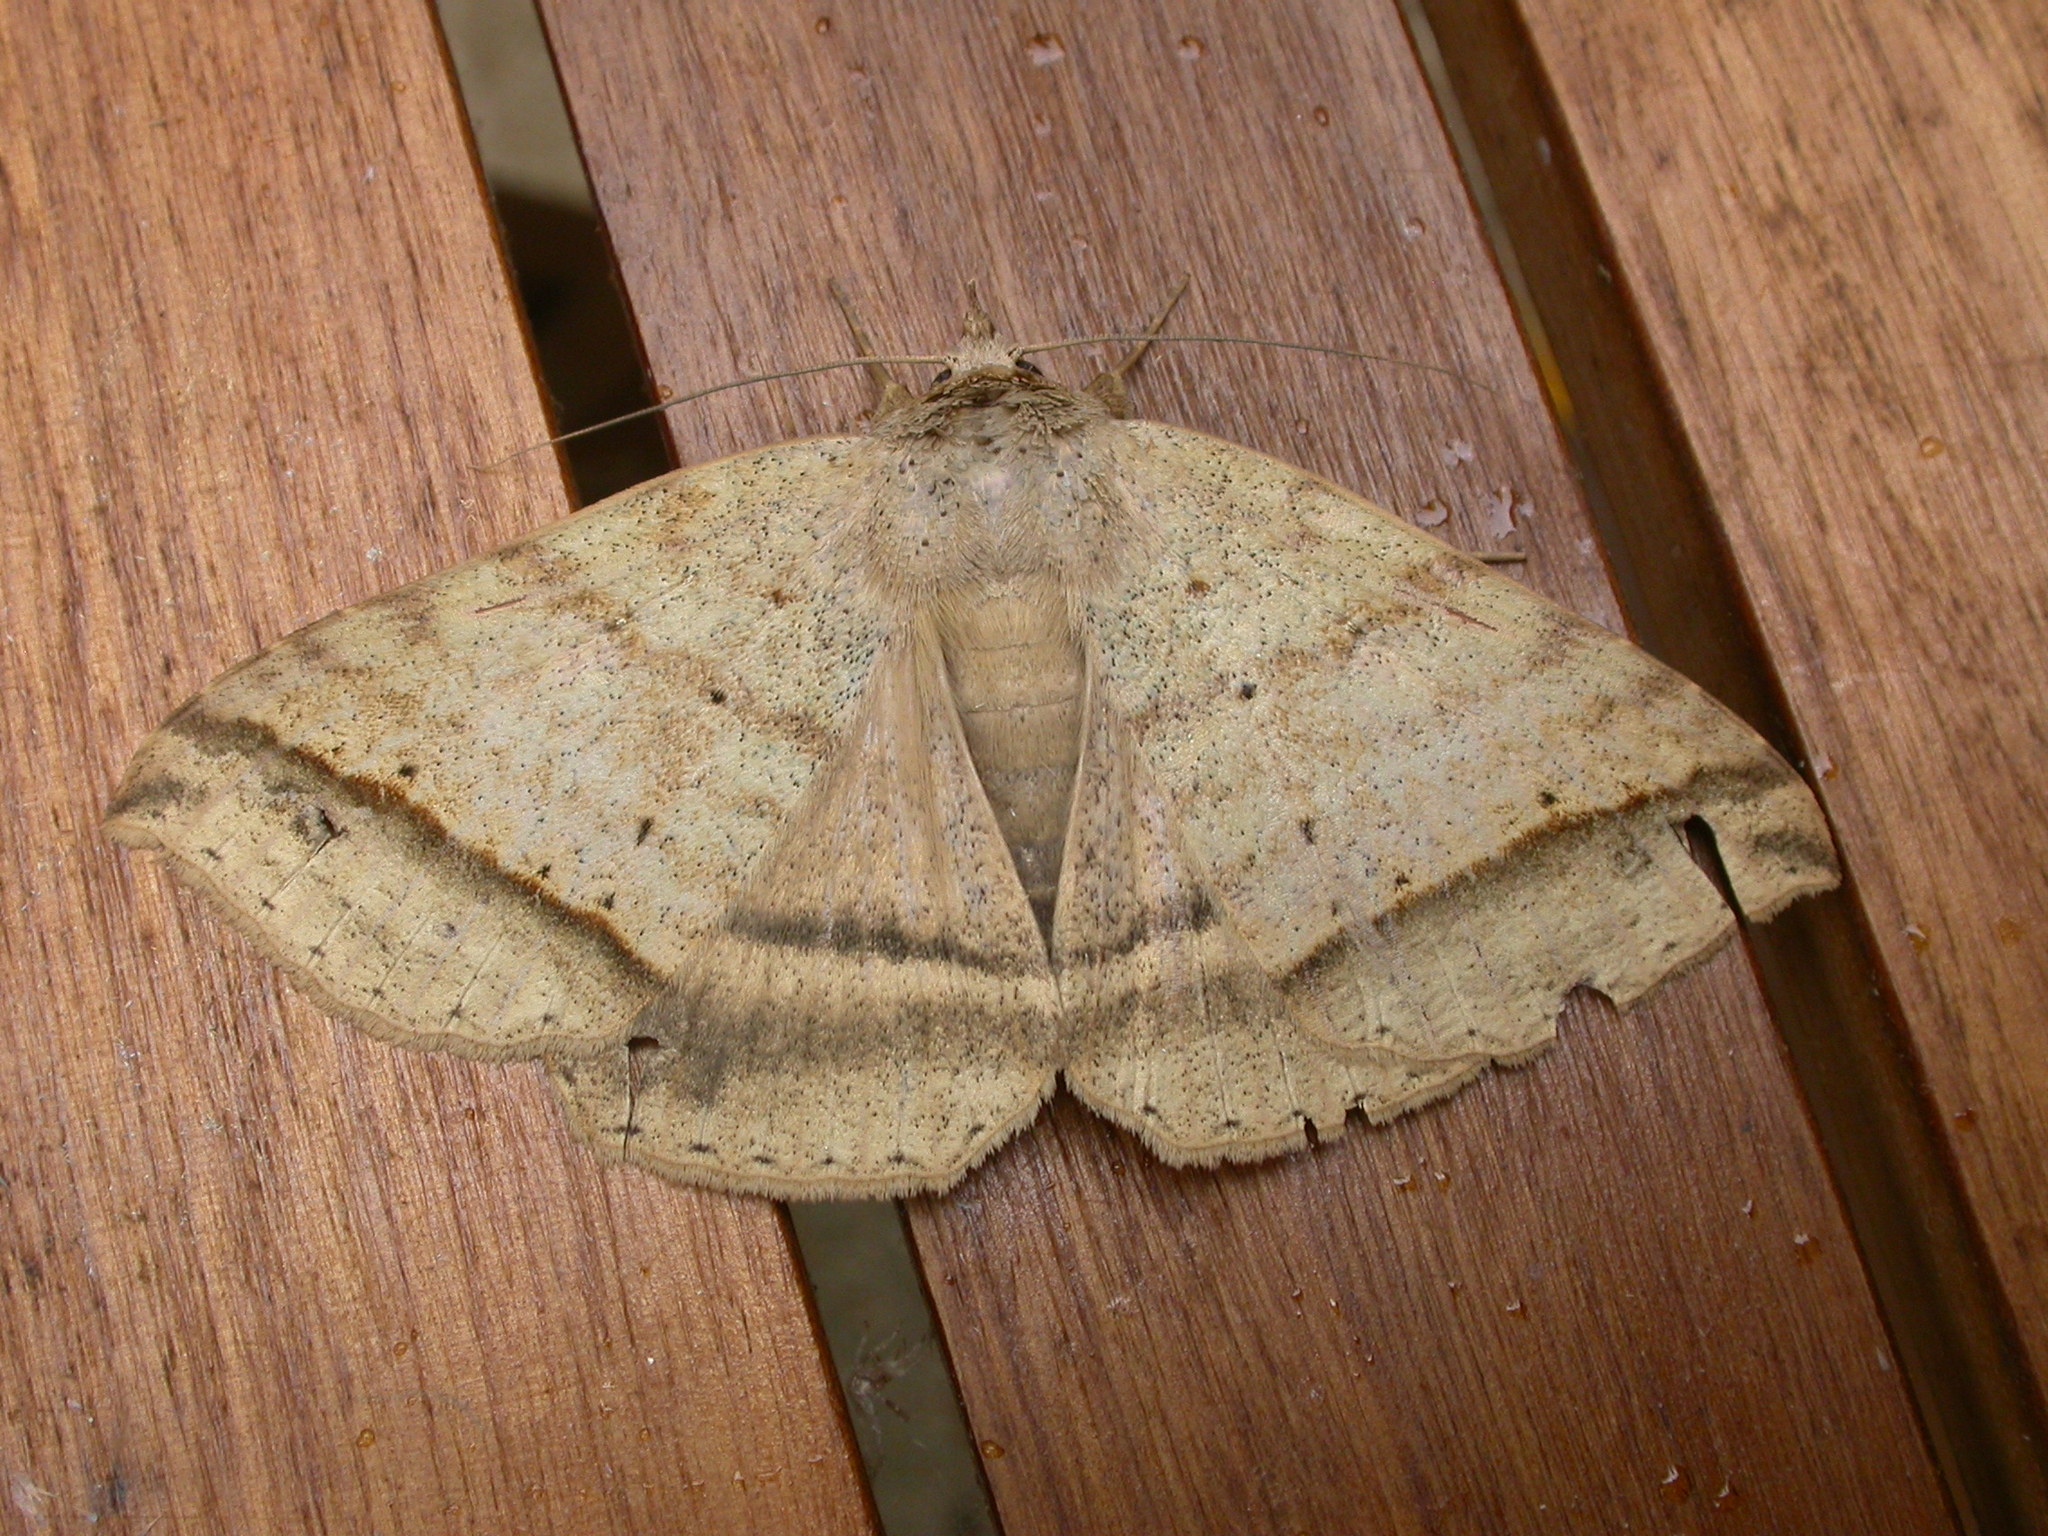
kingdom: Animalia
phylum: Arthropoda
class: Insecta
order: Lepidoptera
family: Erebidae
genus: Polydesmiola
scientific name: Polydesmiola meekii
